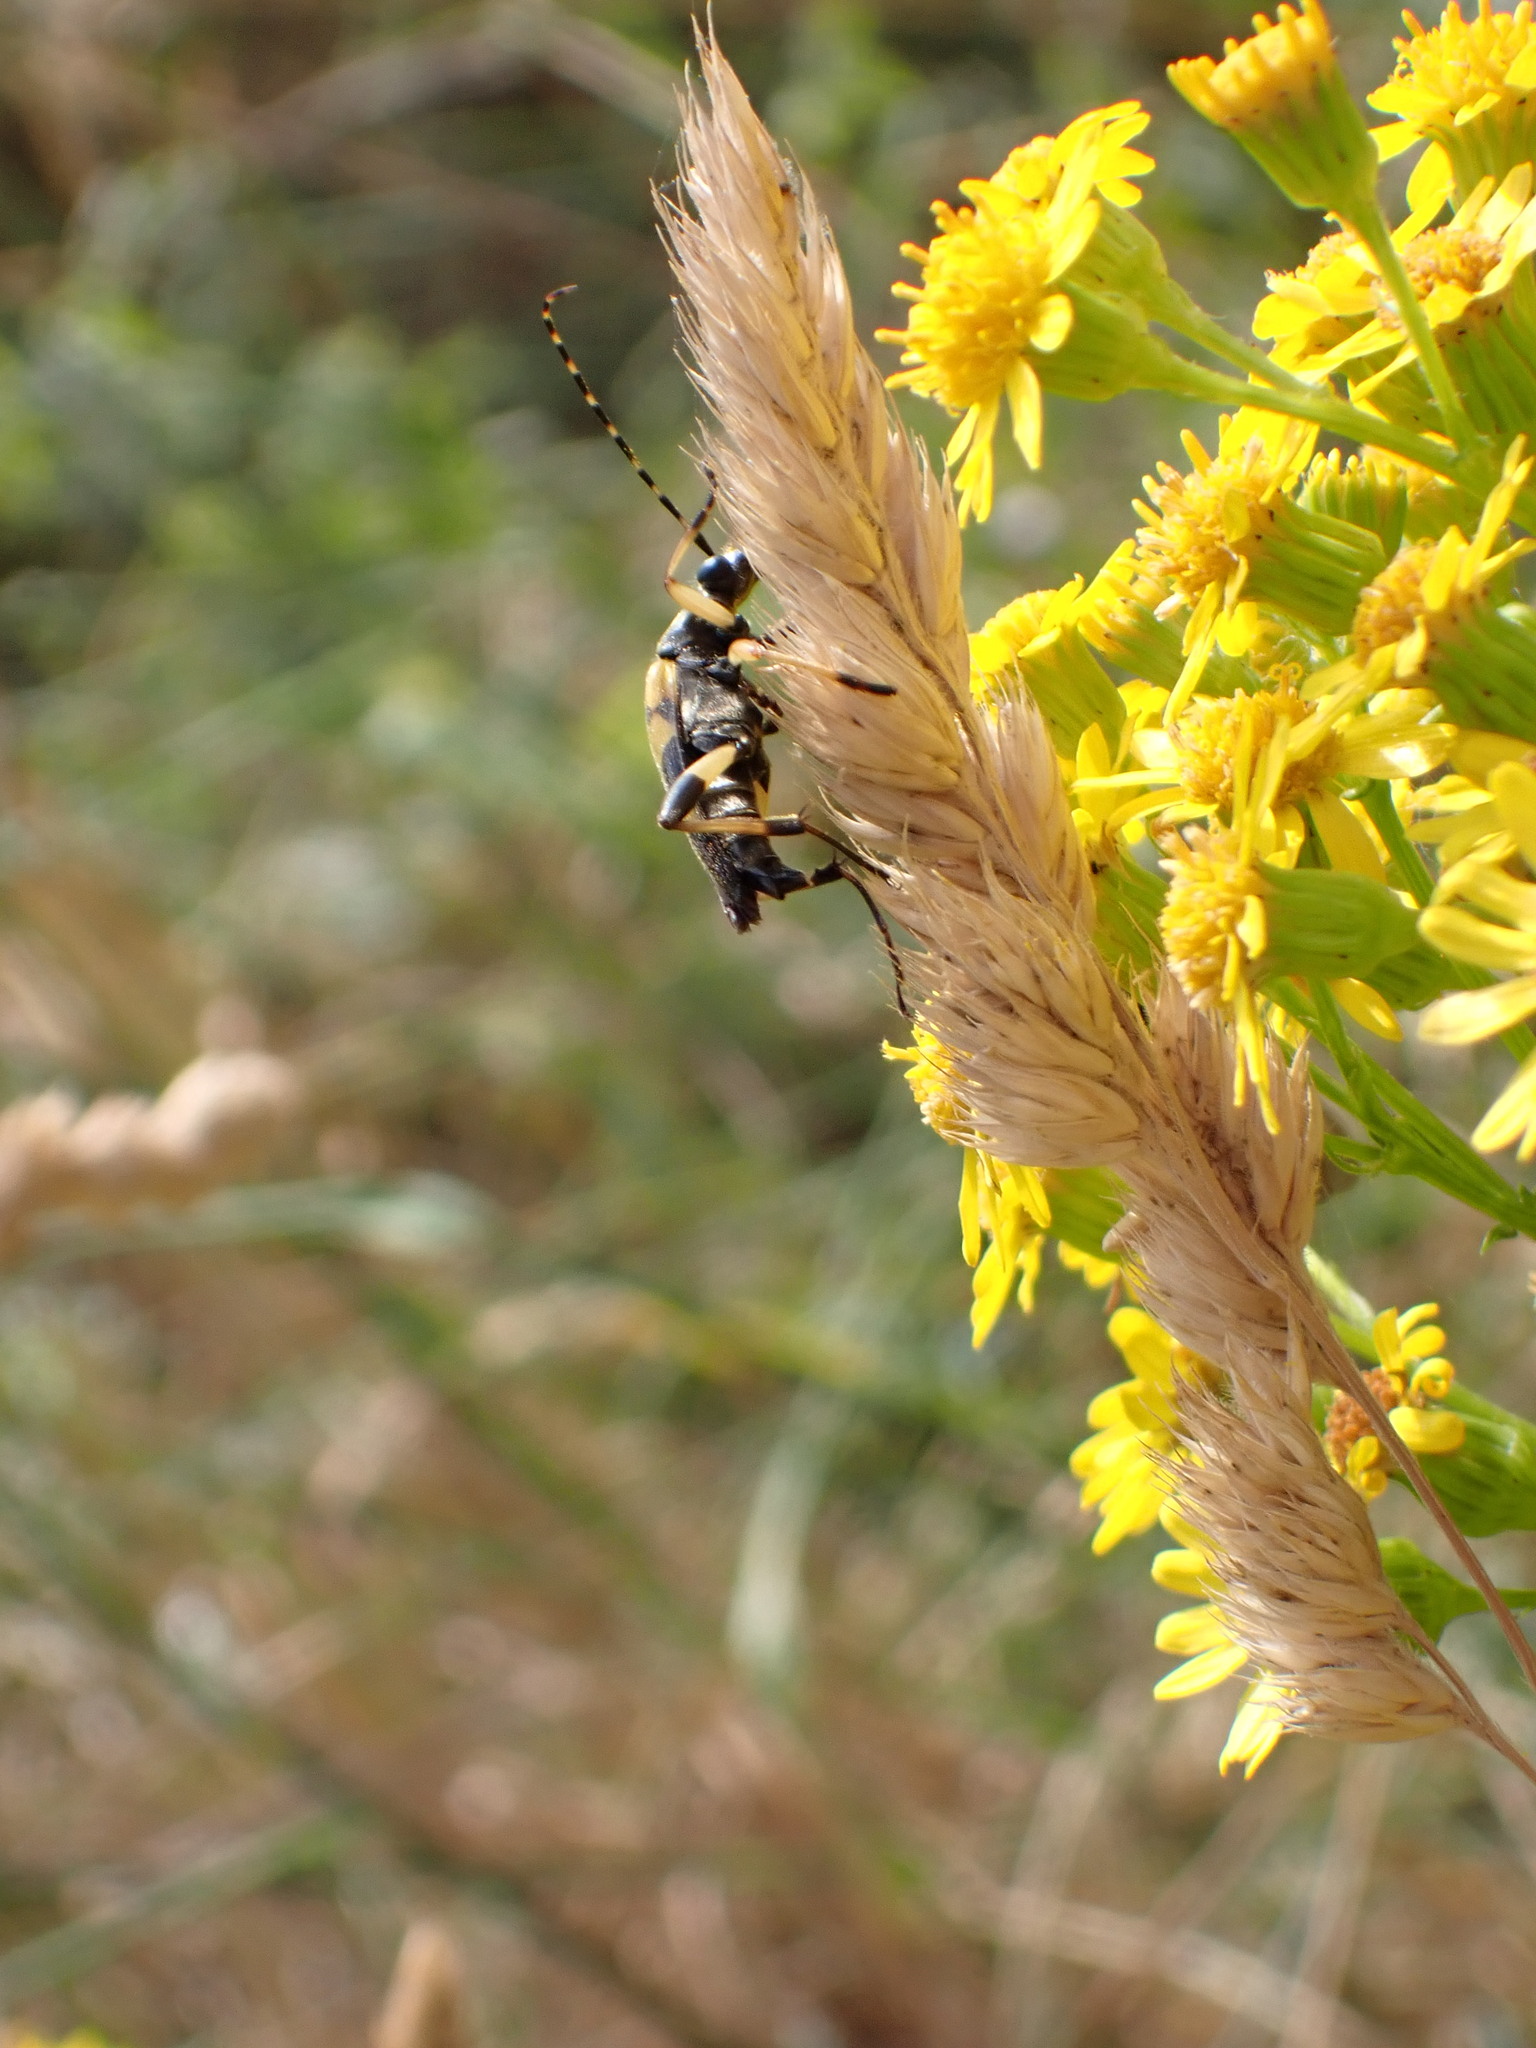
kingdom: Animalia
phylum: Arthropoda
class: Insecta
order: Coleoptera
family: Cerambycidae
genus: Rutpela
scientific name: Rutpela maculata
